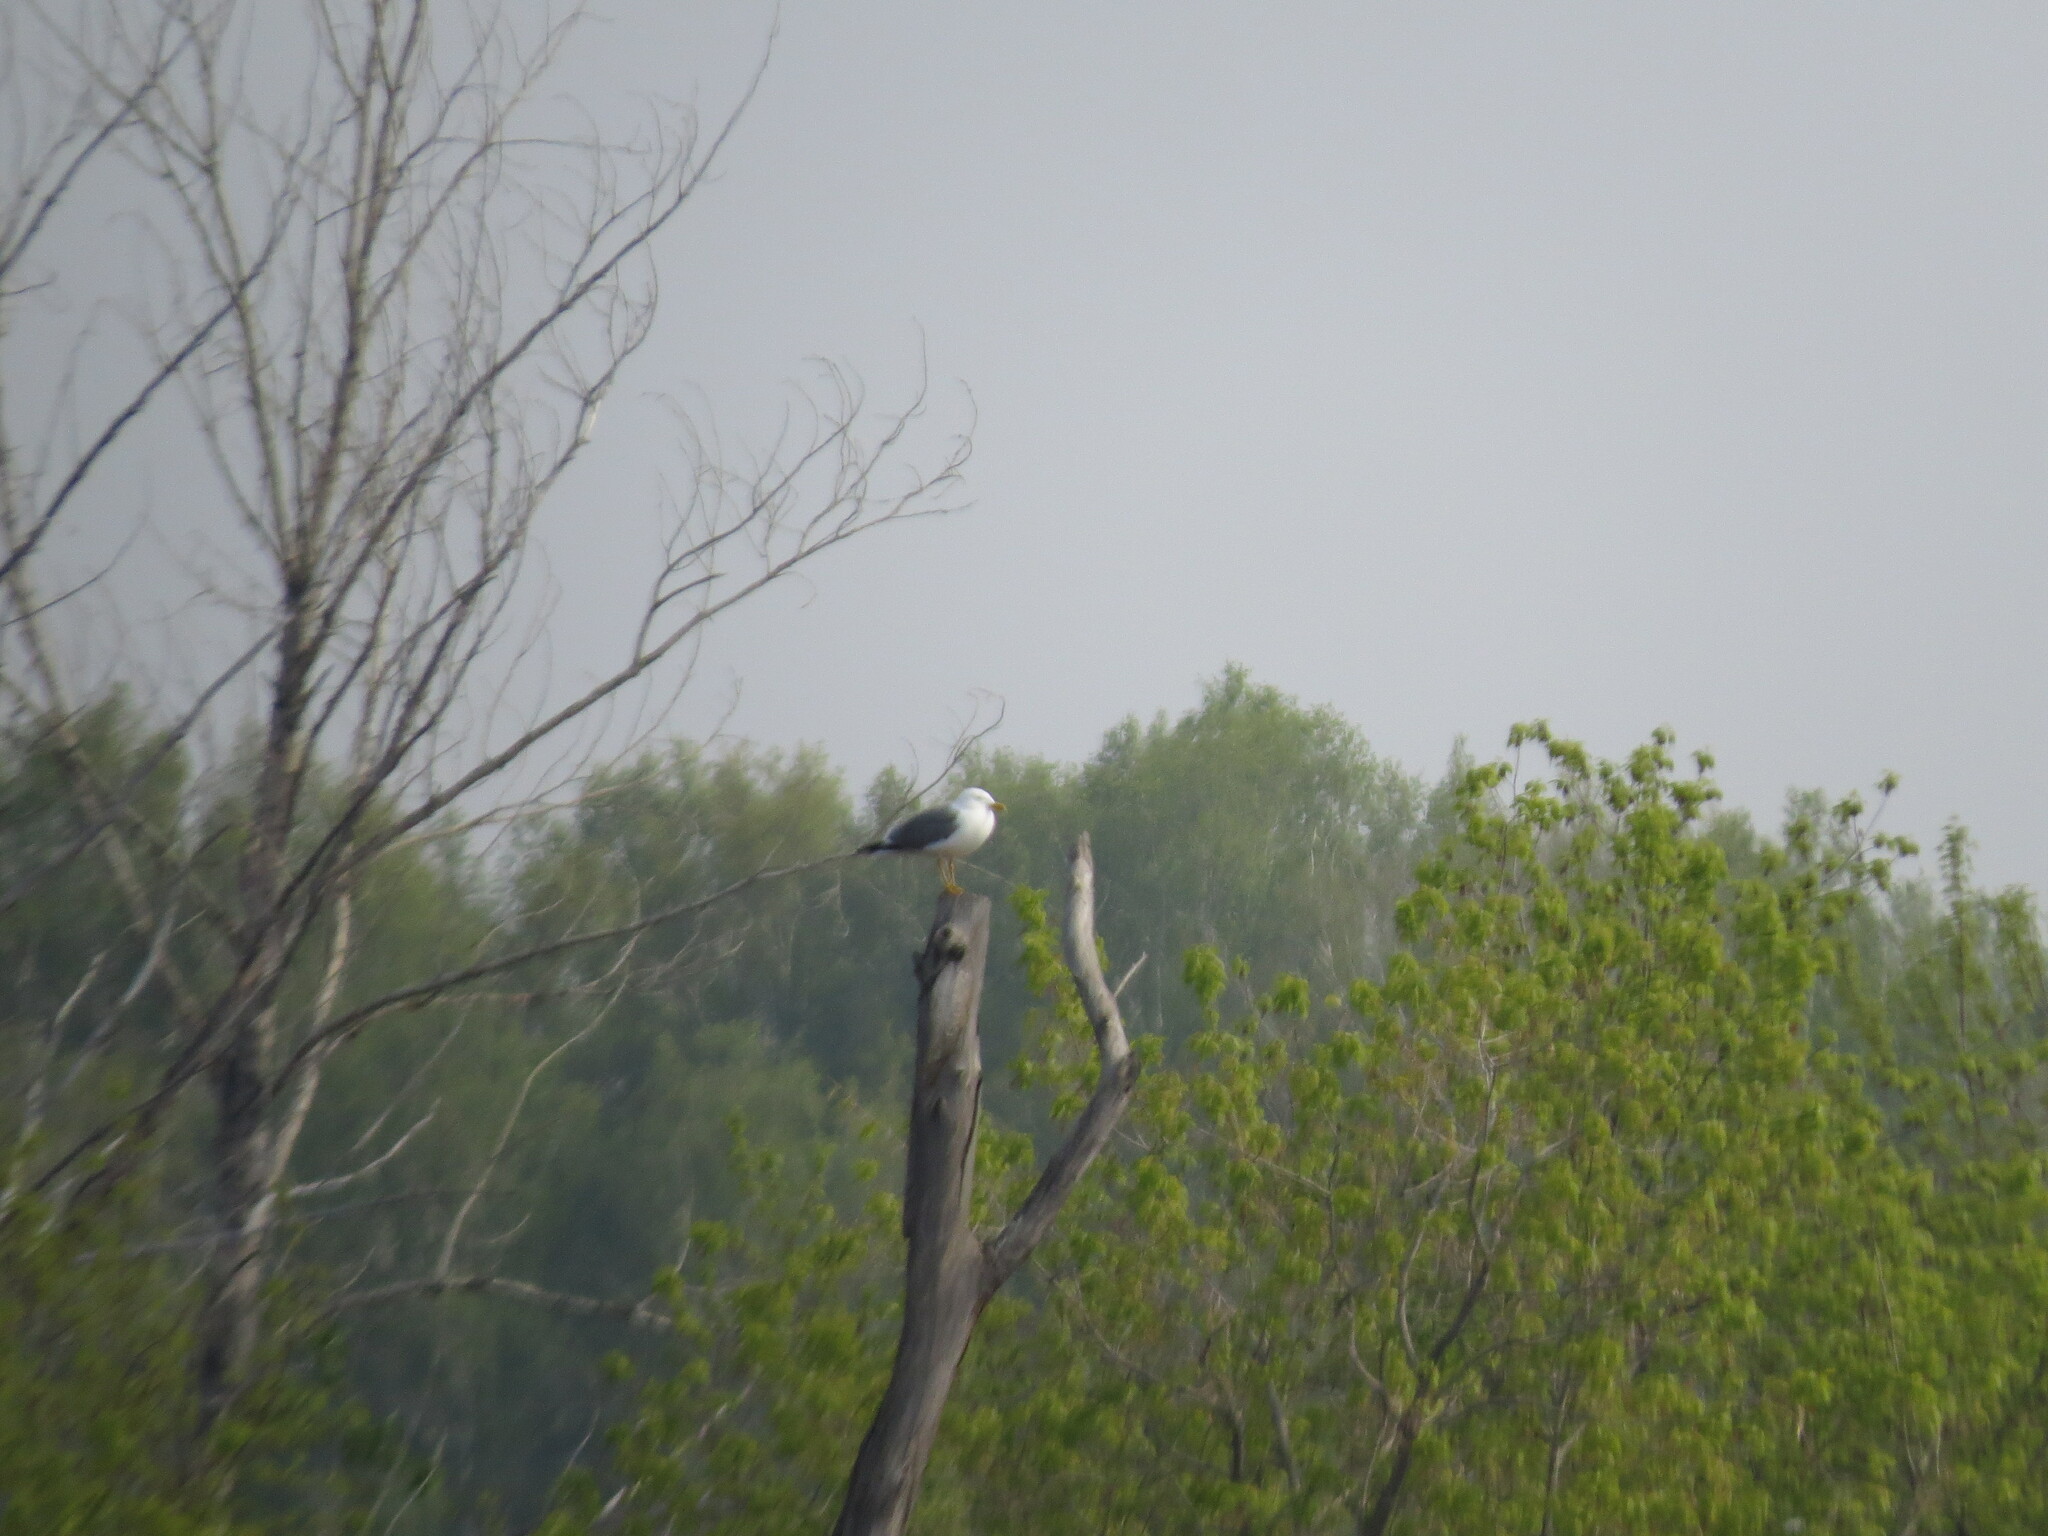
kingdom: Animalia
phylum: Chordata
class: Aves
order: Charadriiformes
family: Laridae
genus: Larus
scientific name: Larus fuscus
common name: Lesser black-backed gull
